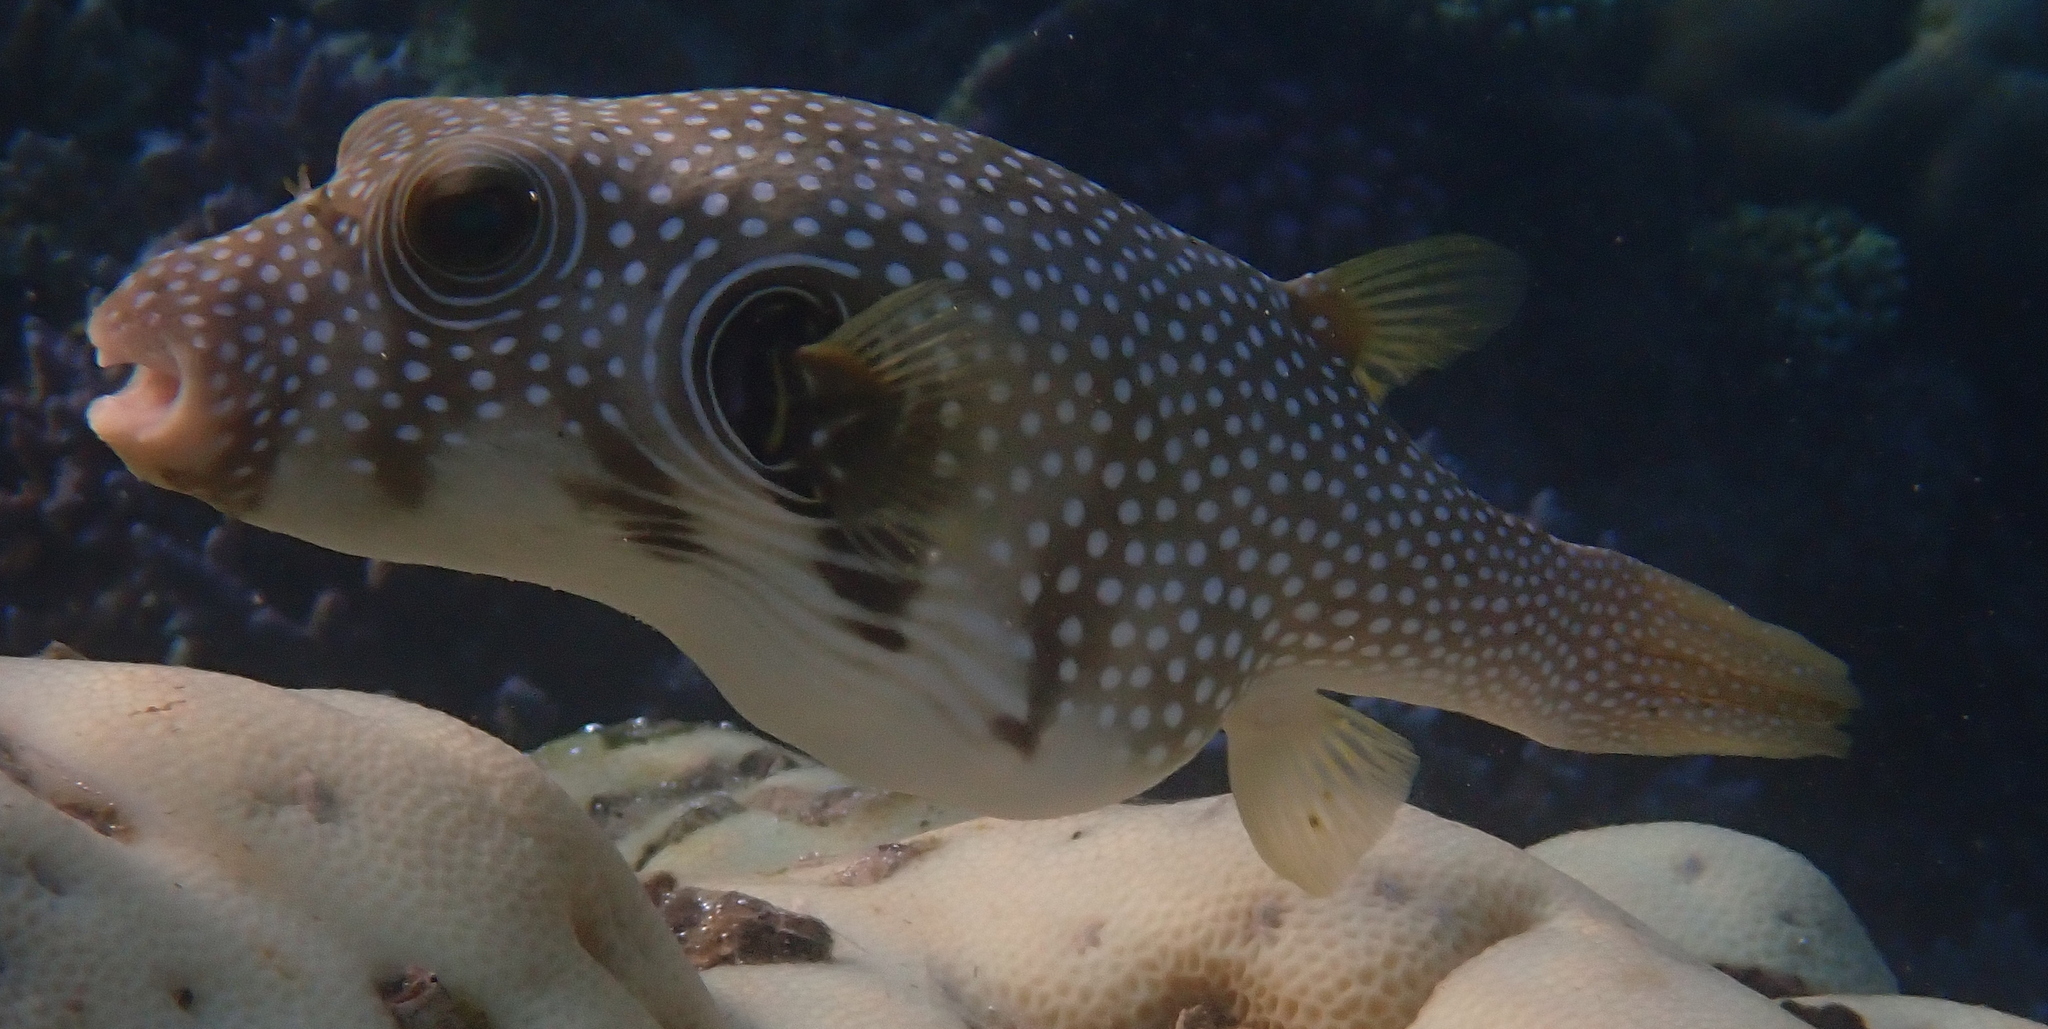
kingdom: Animalia
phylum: Chordata
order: Tetraodontiformes
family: Tetraodontidae
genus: Arothron
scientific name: Arothron hispidus
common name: Stripebelly puffer
